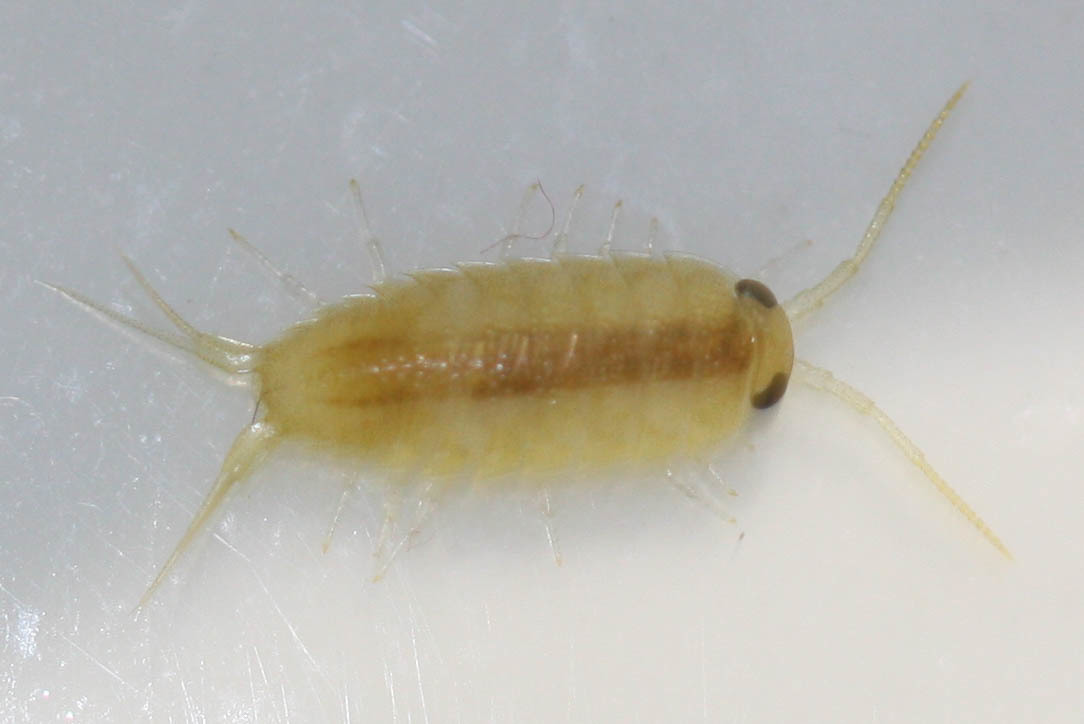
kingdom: Animalia
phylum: Arthropoda
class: Malacostraca
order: Isopoda
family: Ligiidae
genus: Ligia
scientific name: Ligia italica
